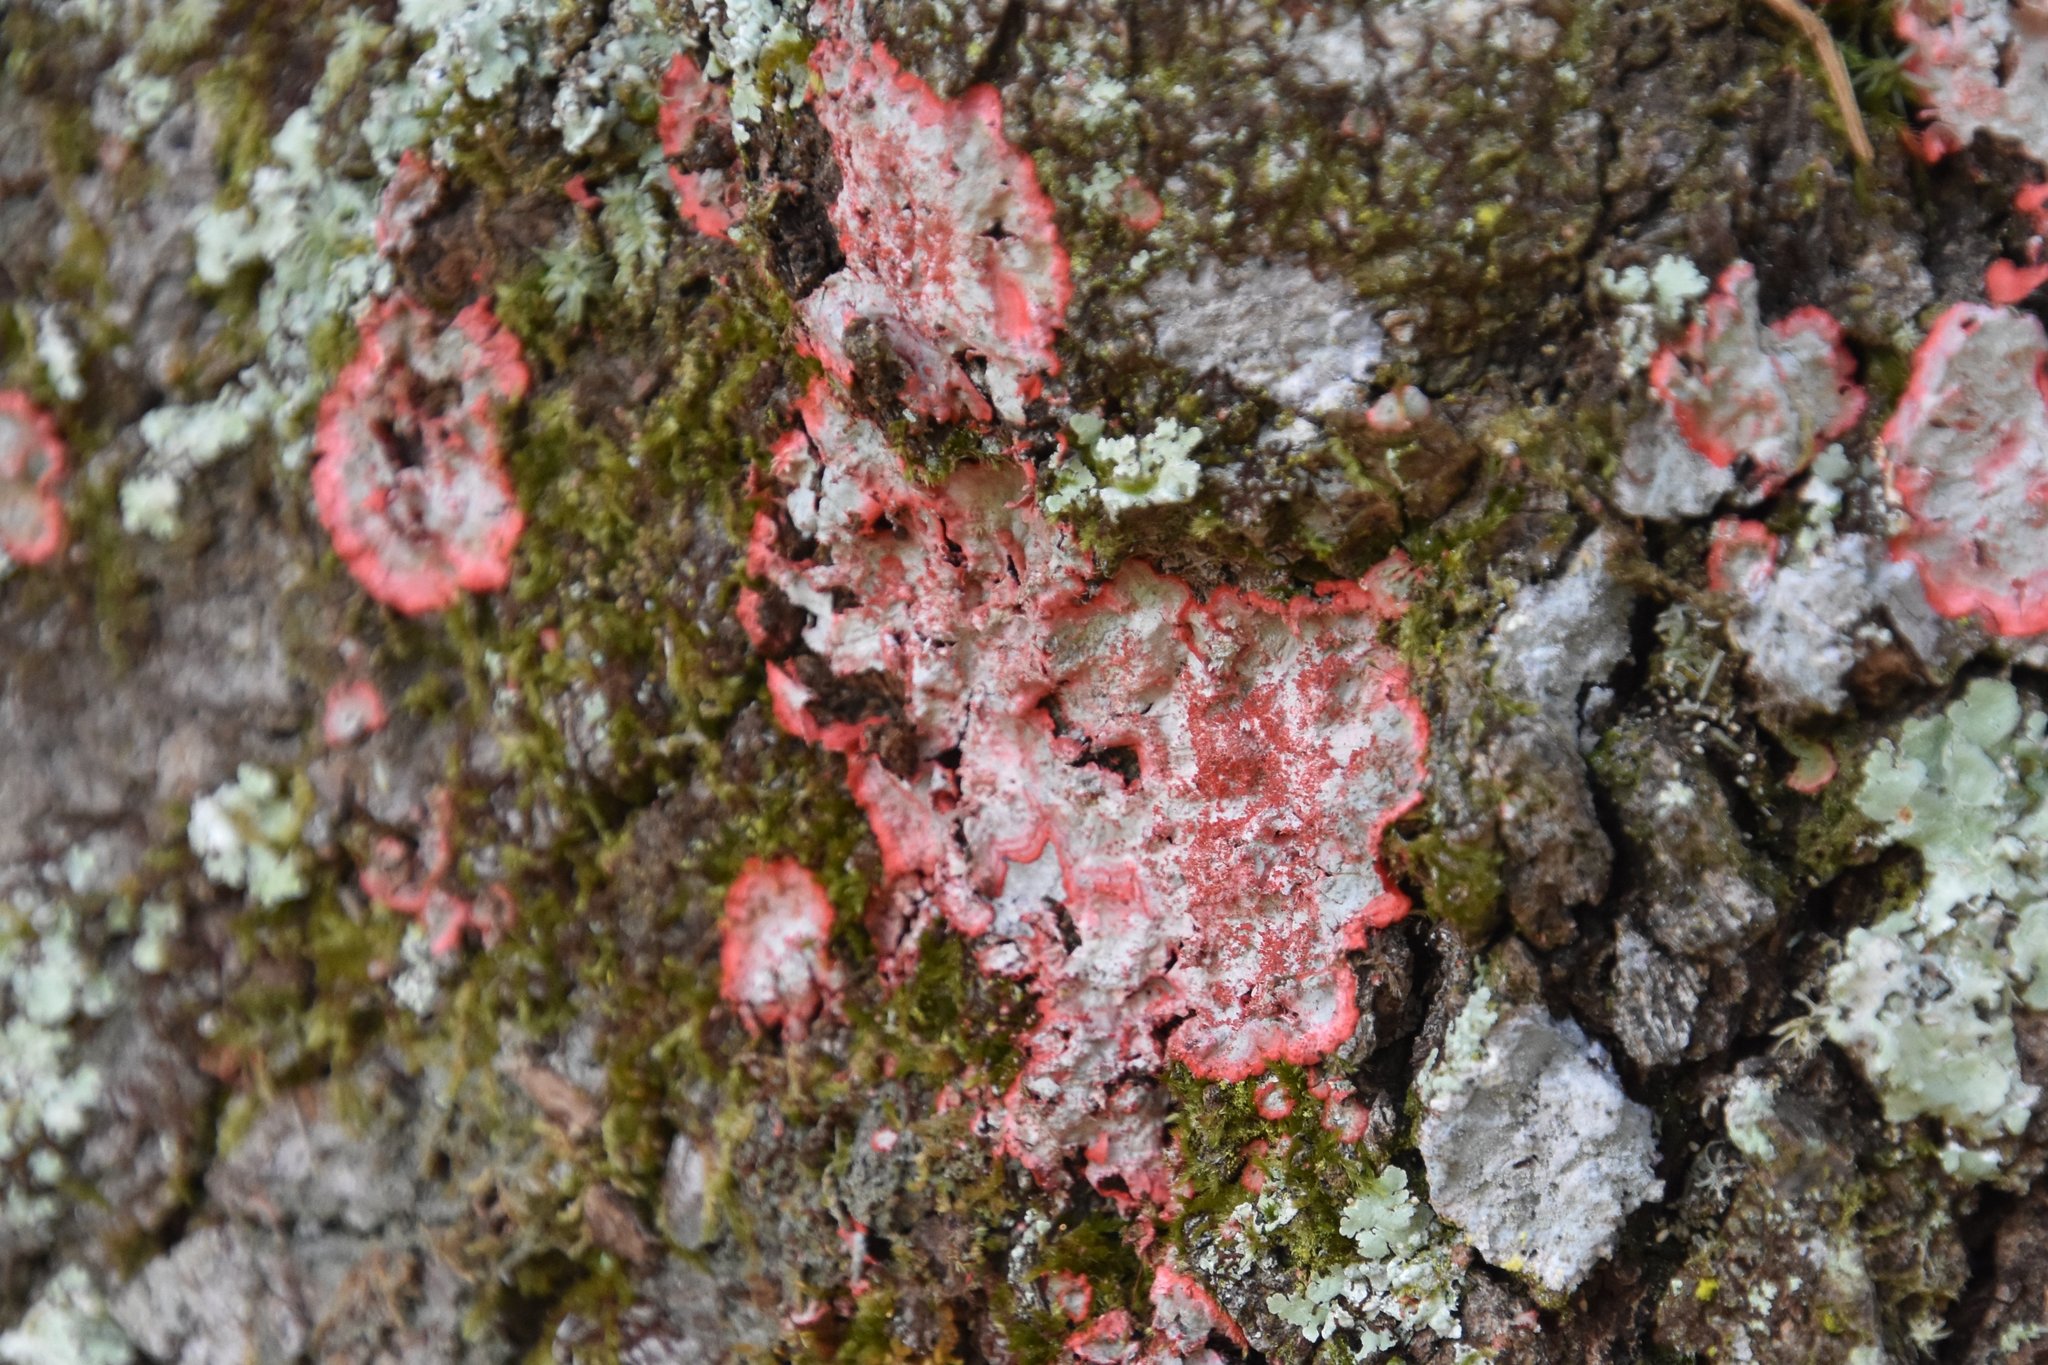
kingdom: Fungi
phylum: Ascomycota
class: Arthoniomycetes
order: Arthoniales
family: Arthoniaceae
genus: Herpothallon
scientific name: Herpothallon rubrocinctum
